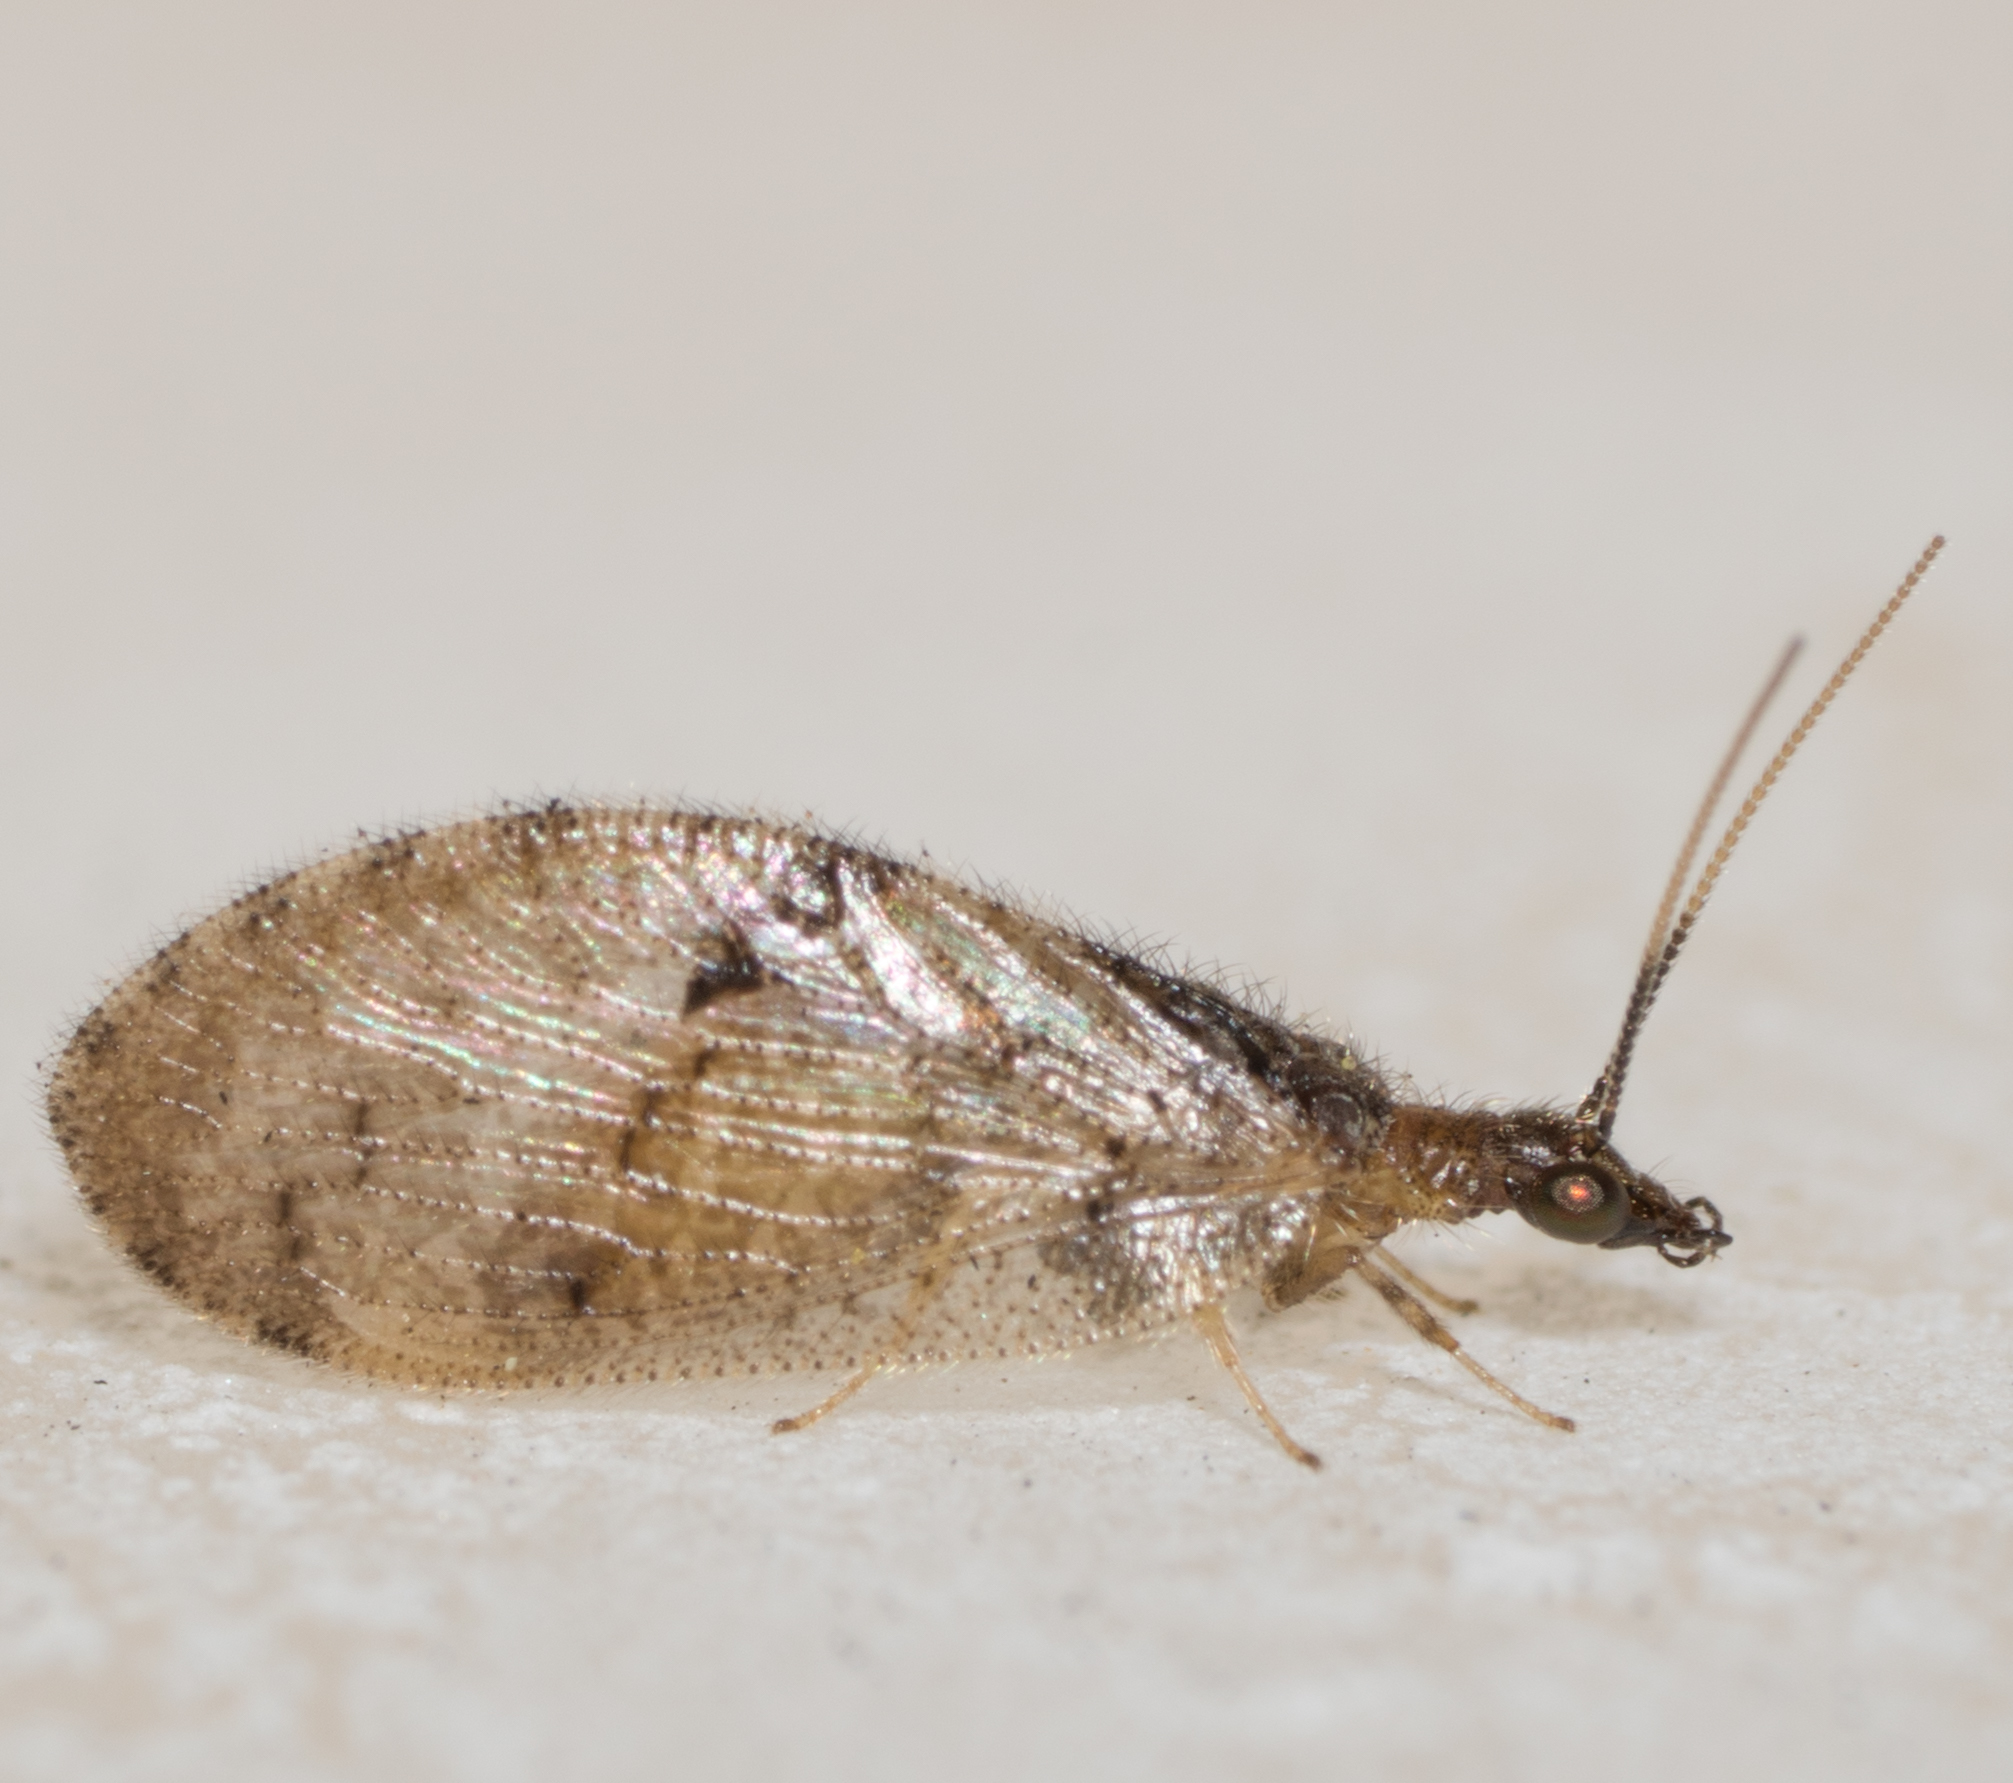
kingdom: Animalia
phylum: Arthropoda
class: Insecta
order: Neuroptera
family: Hemerobiidae
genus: Sympherobius
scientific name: Sympherobius barberi
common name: Brown lacewing
